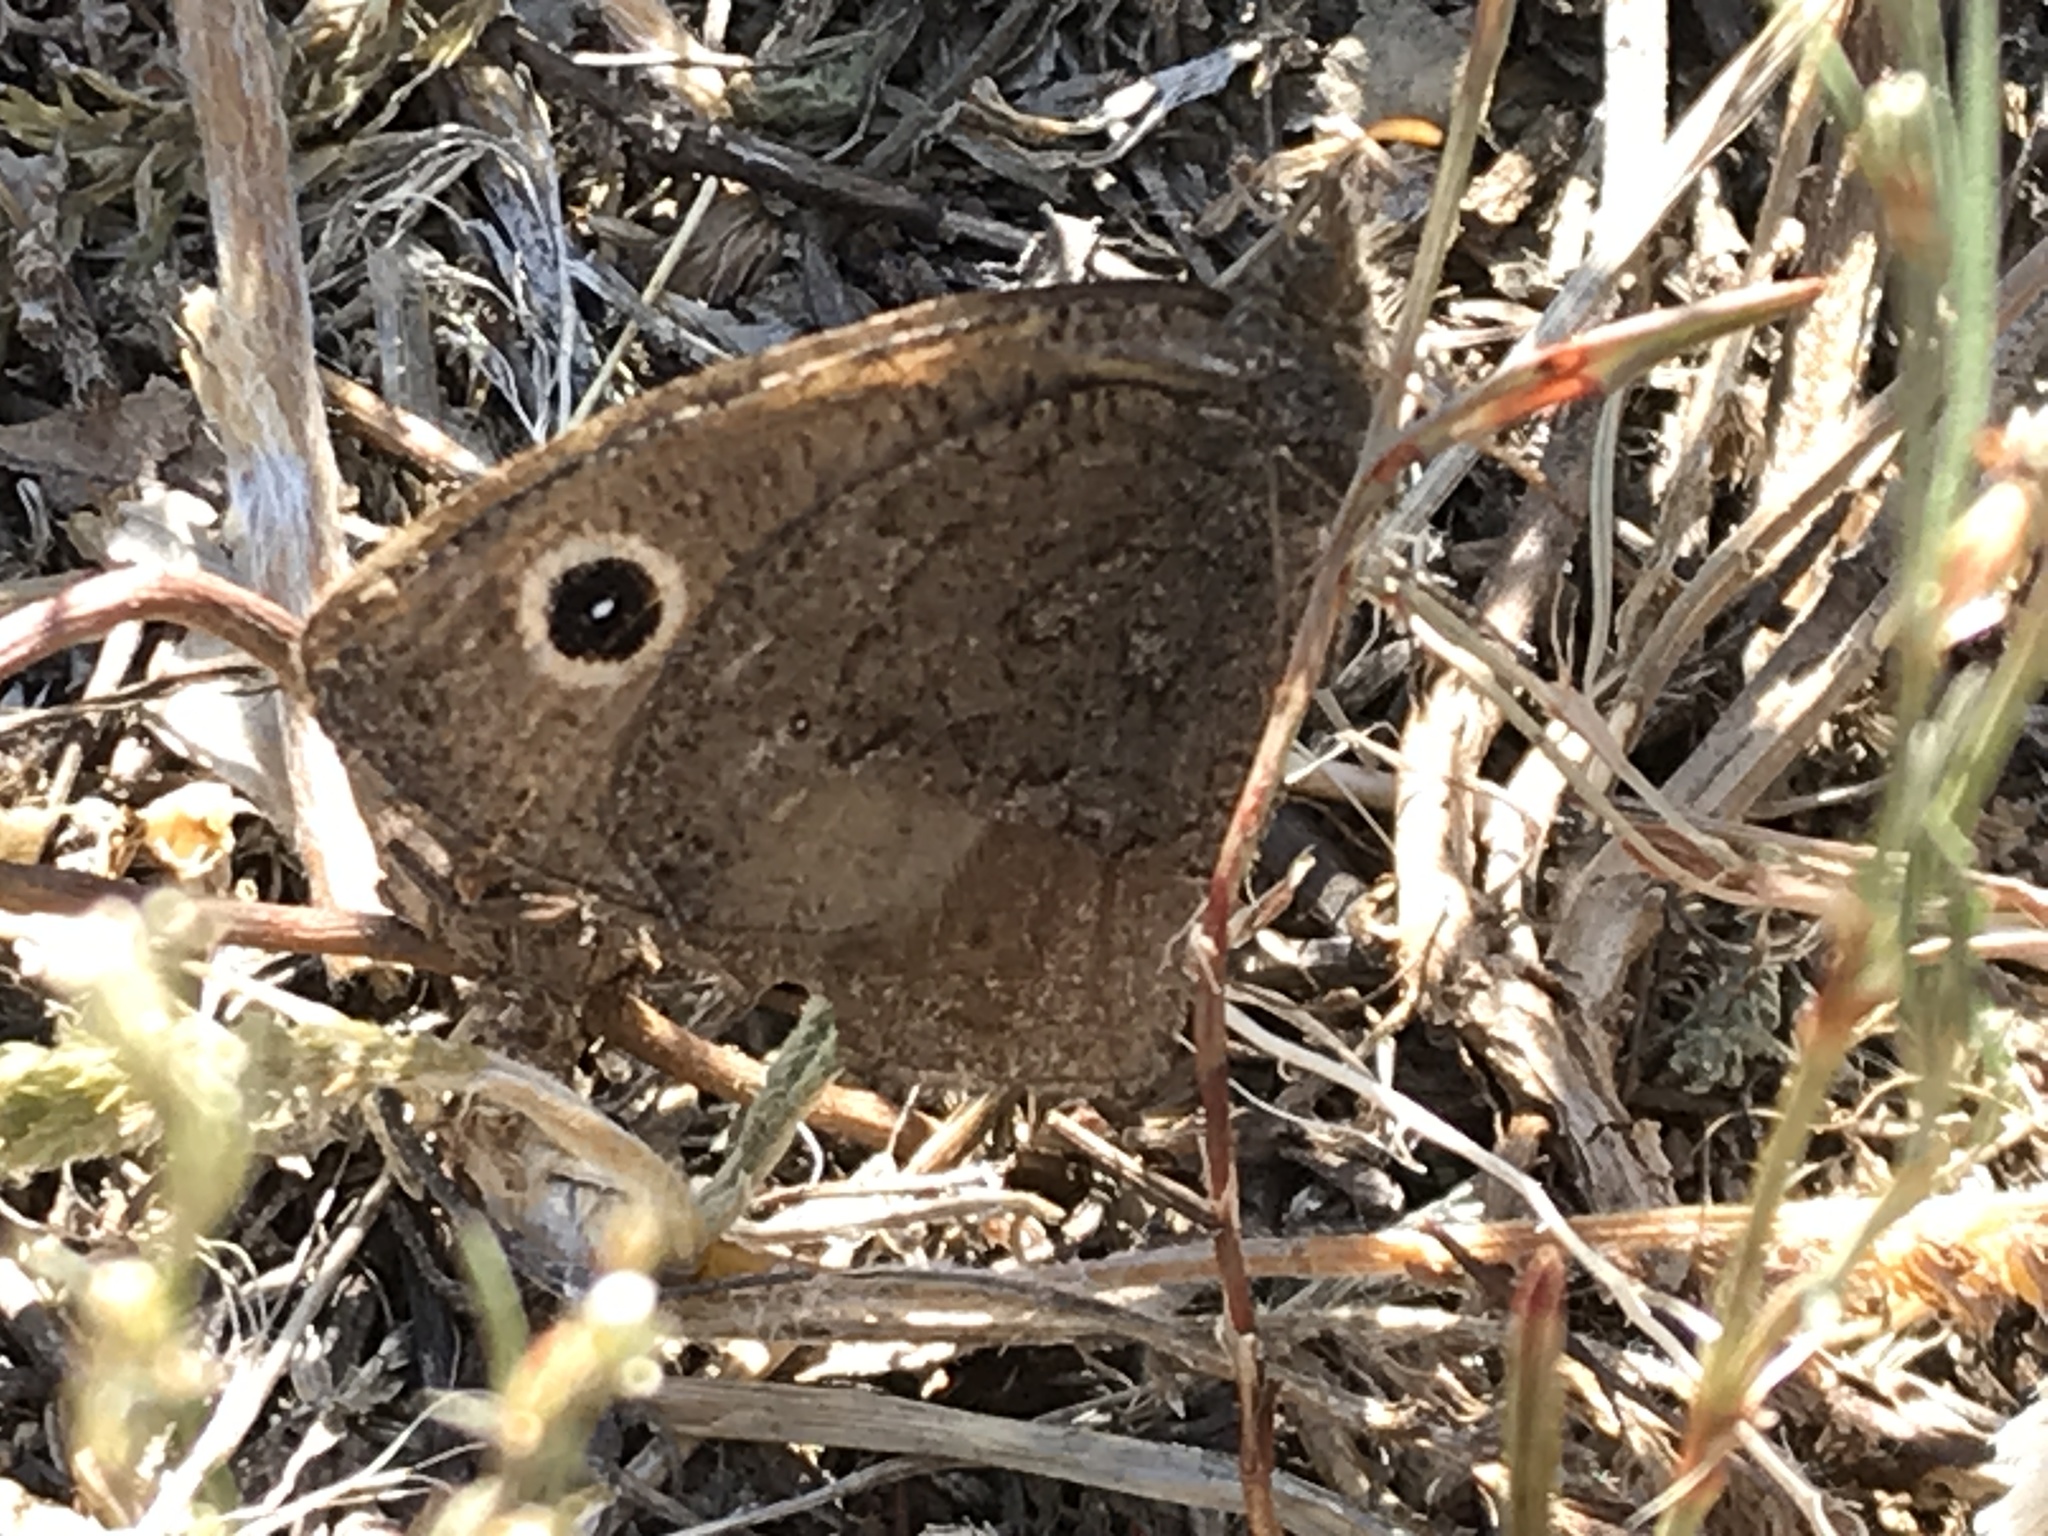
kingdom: Animalia
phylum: Arthropoda
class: Insecta
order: Lepidoptera
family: Nymphalidae
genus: Cercyonis
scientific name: Cercyonis oetus
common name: Small wood-nymph
